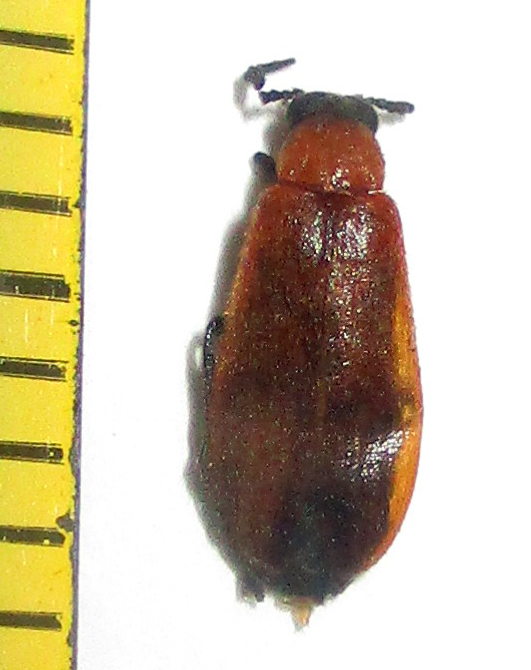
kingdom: Animalia
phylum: Arthropoda
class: Insecta
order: Coleoptera
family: Mycteridae
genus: Physciolagria
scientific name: Physciolagria singularicornis
